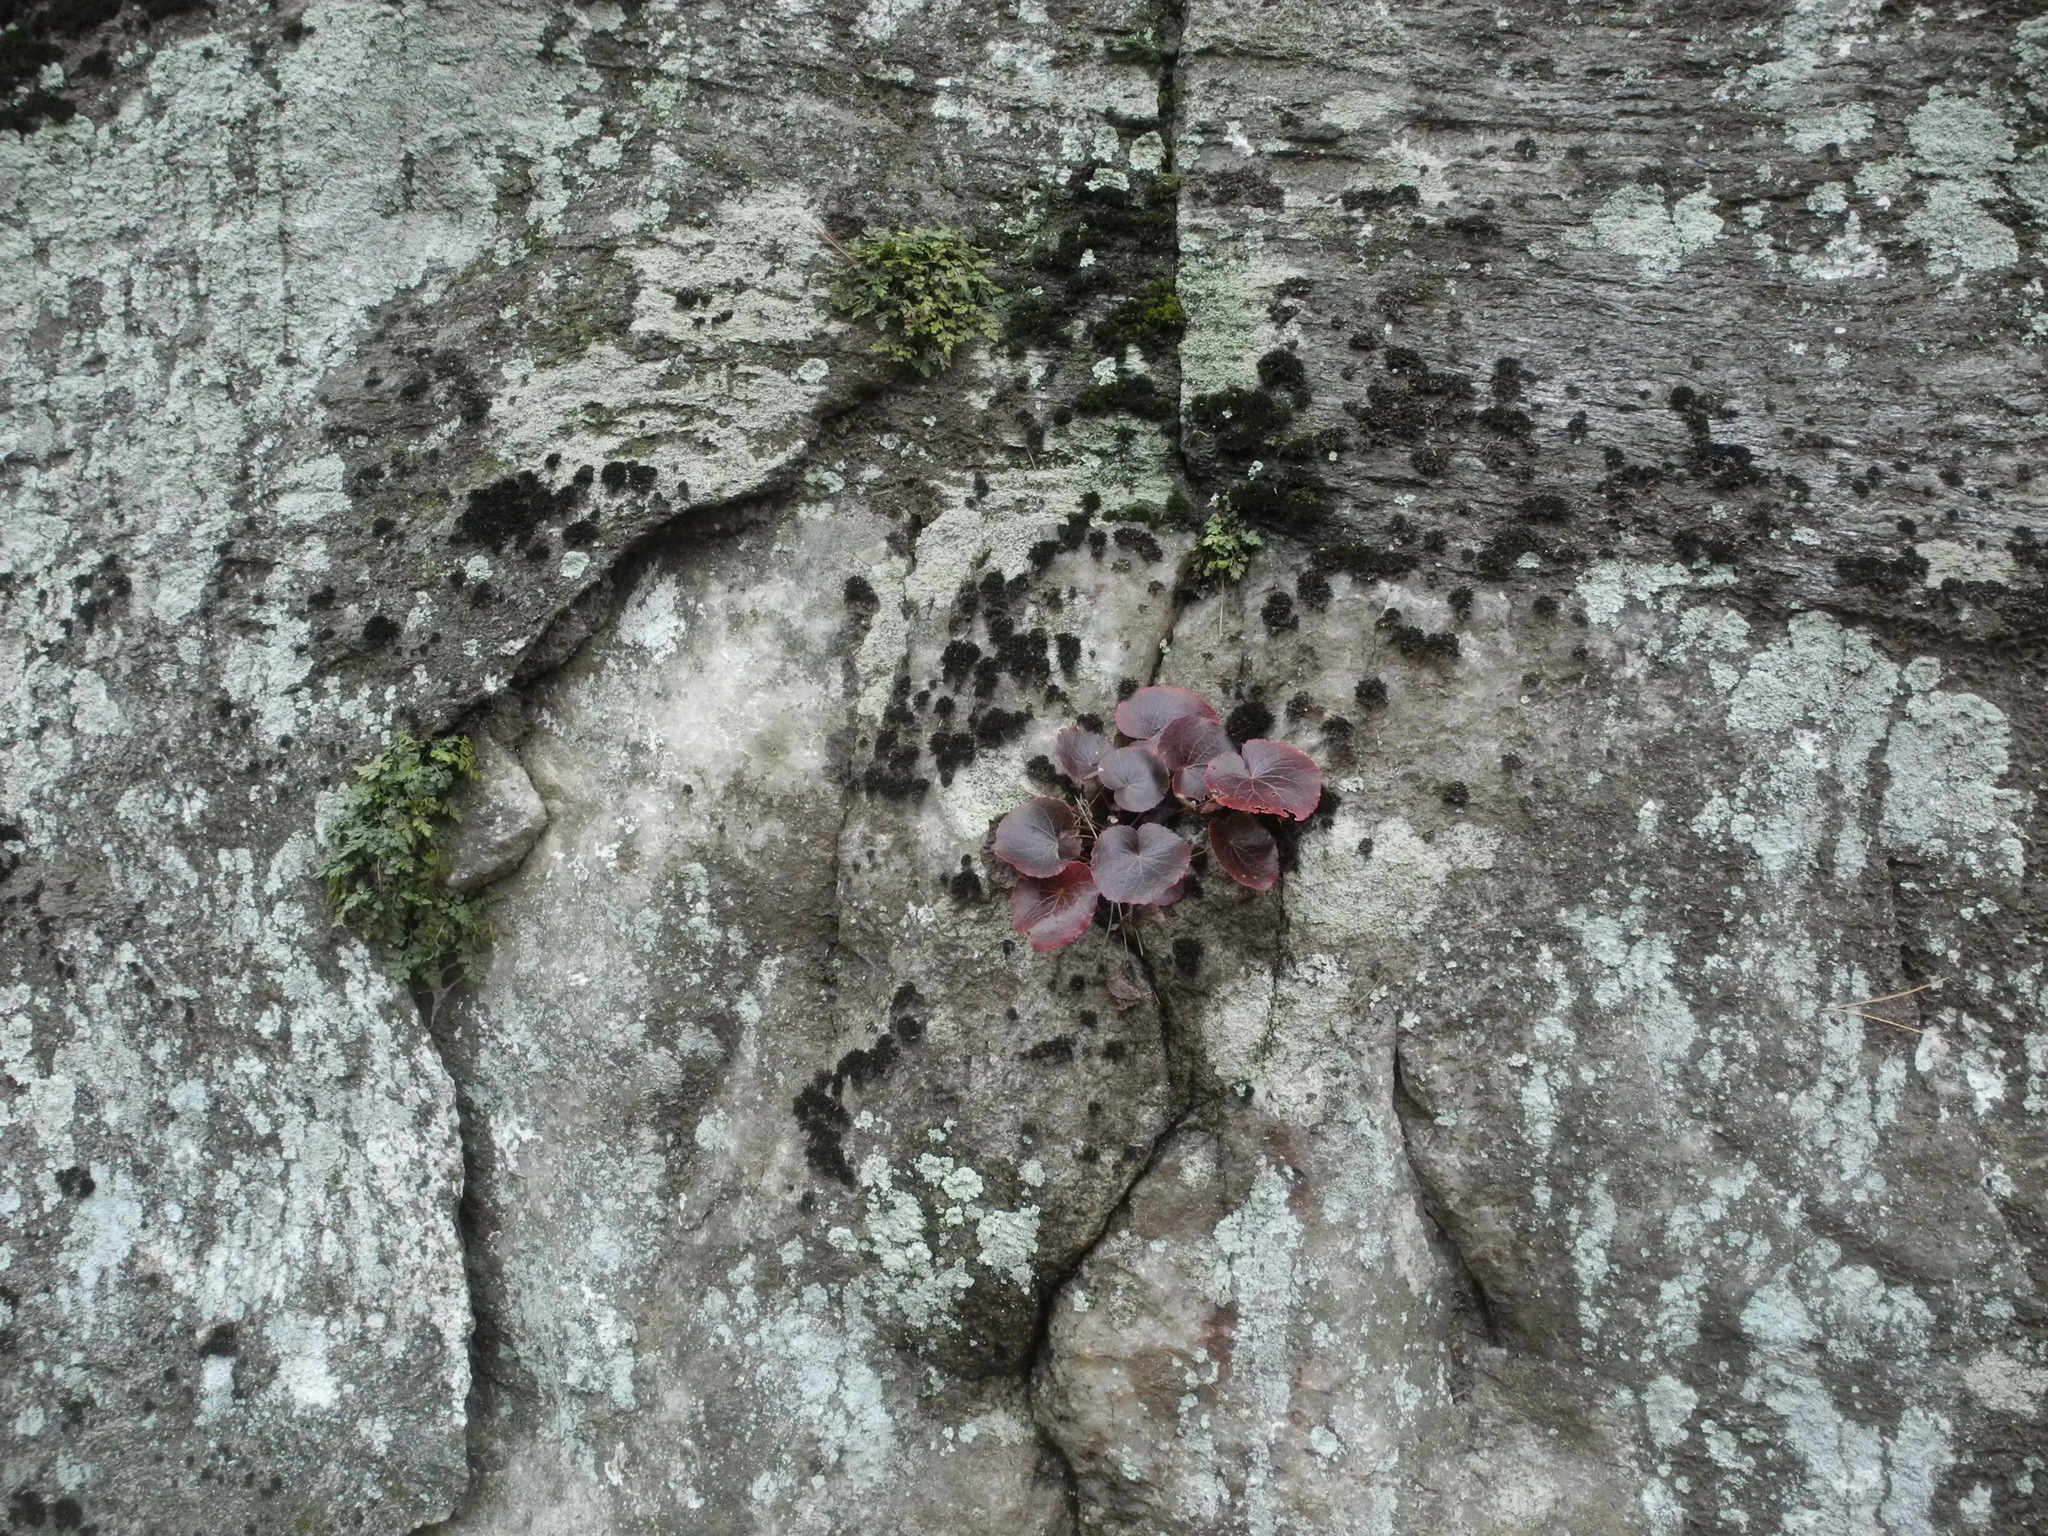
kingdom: Plantae
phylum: Tracheophyta
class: Magnoliopsida
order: Ericales
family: Diapensiaceae
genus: Galax
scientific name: Galax urceolata
